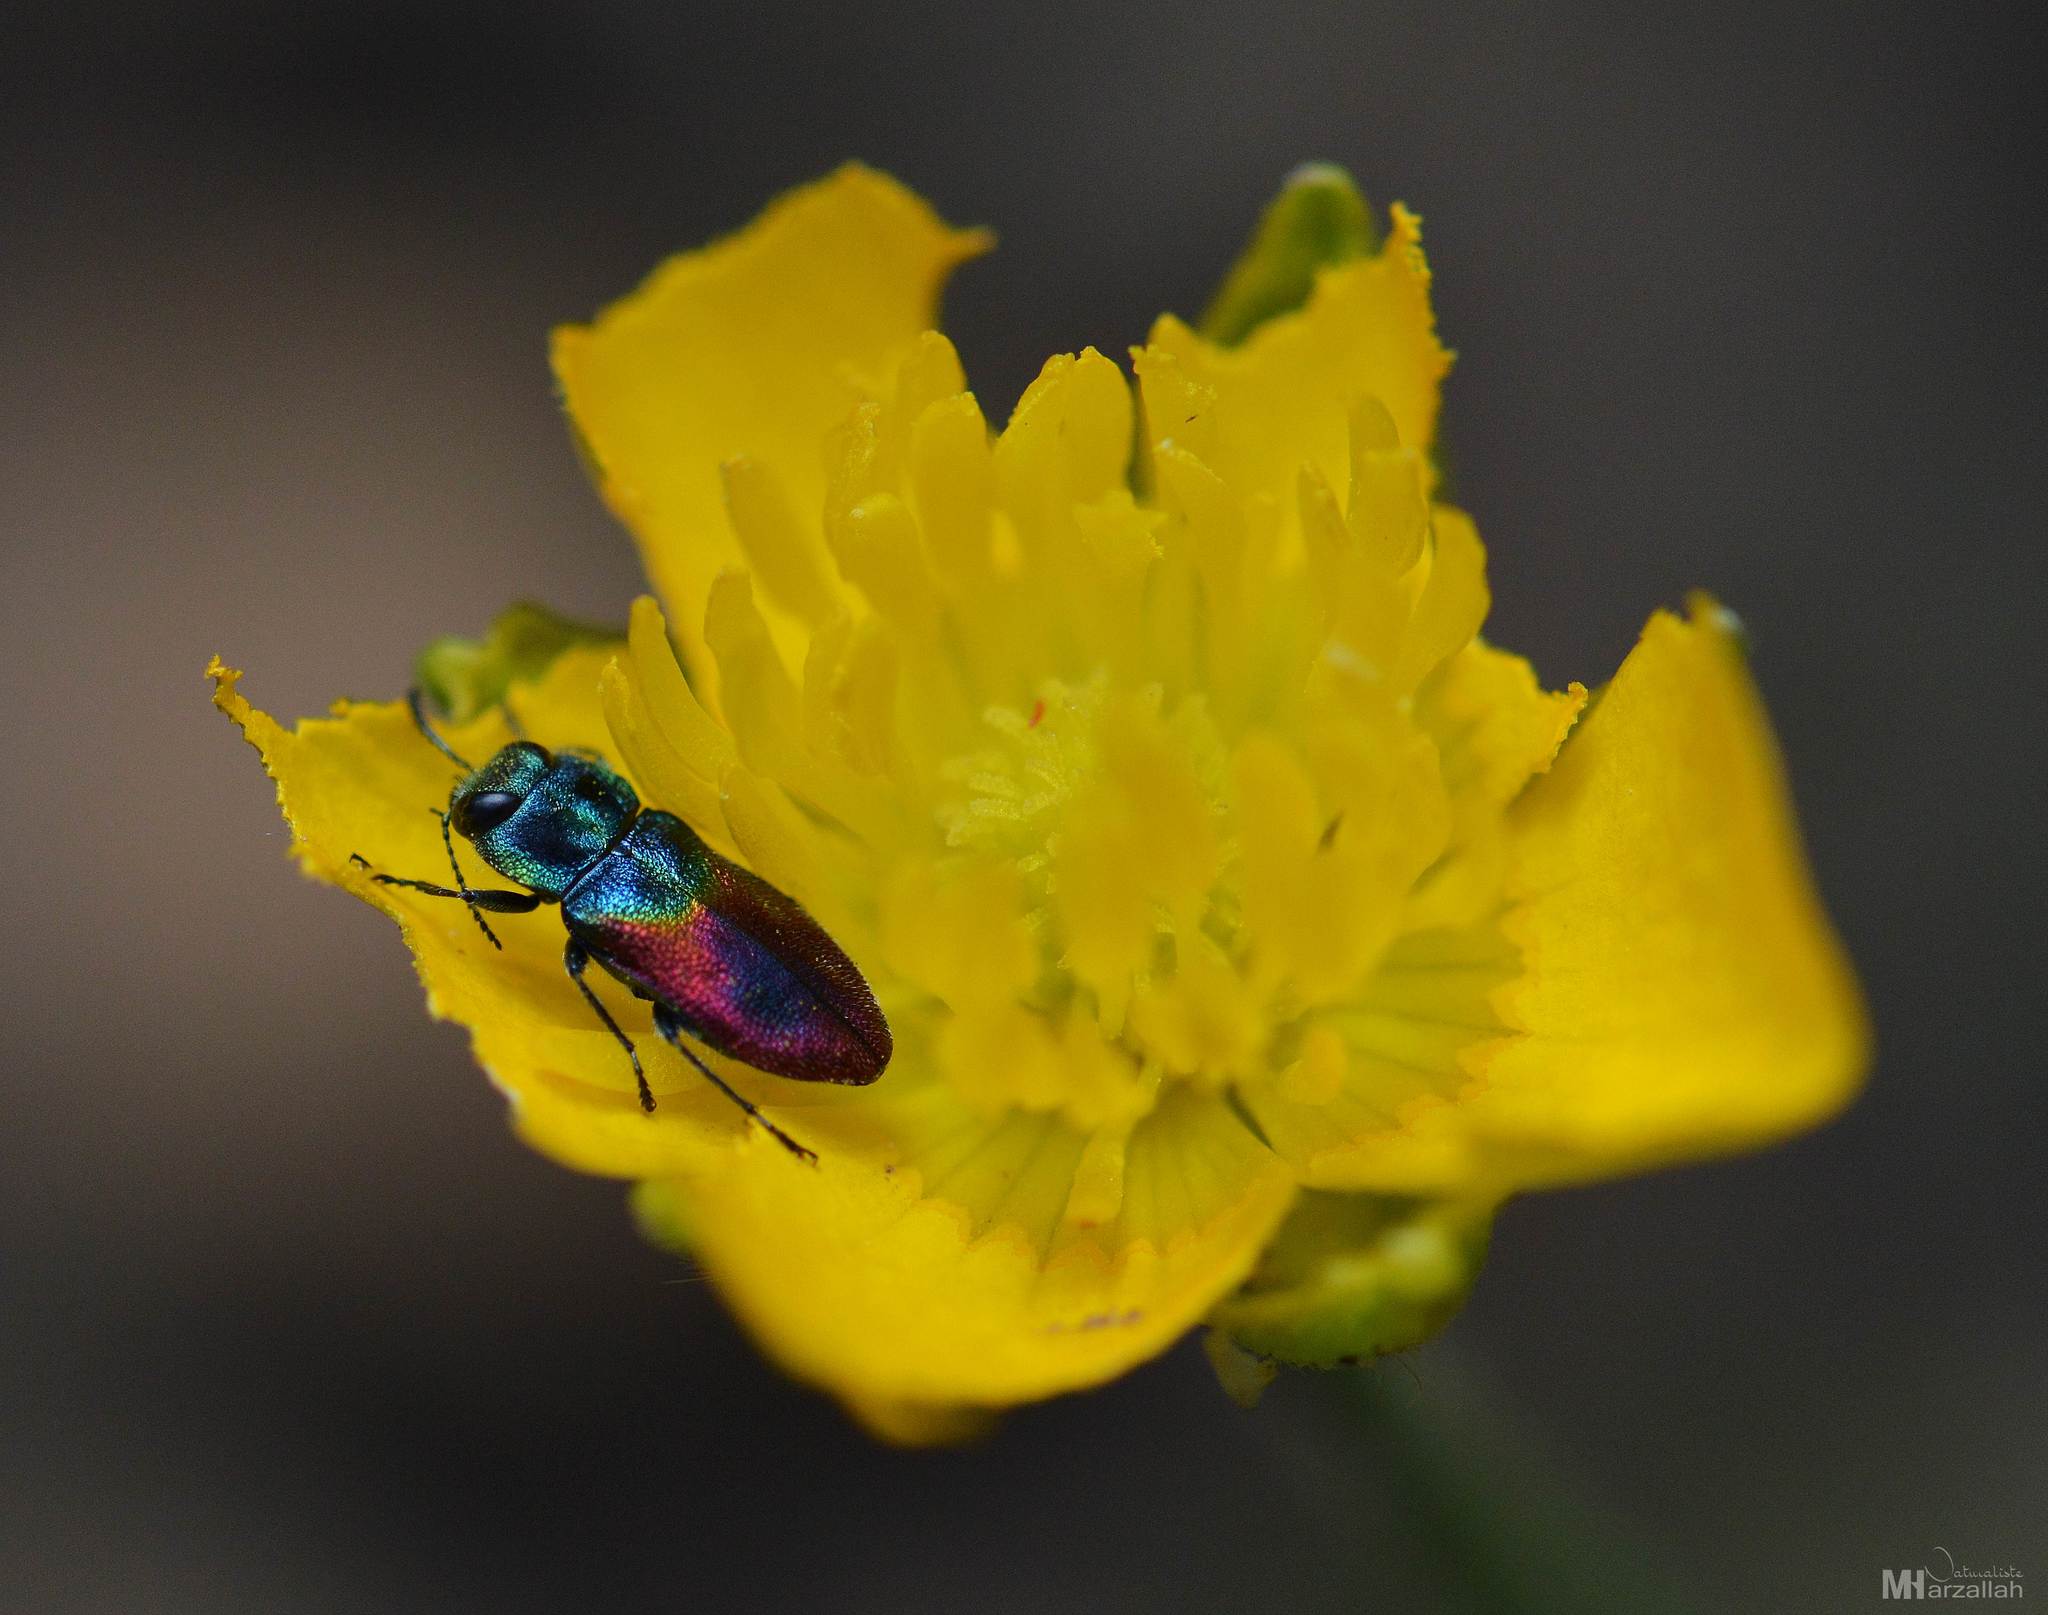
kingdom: Animalia
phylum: Arthropoda
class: Insecta
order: Coleoptera
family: Buprestidae
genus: Anthaxia
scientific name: Anthaxia salicis
